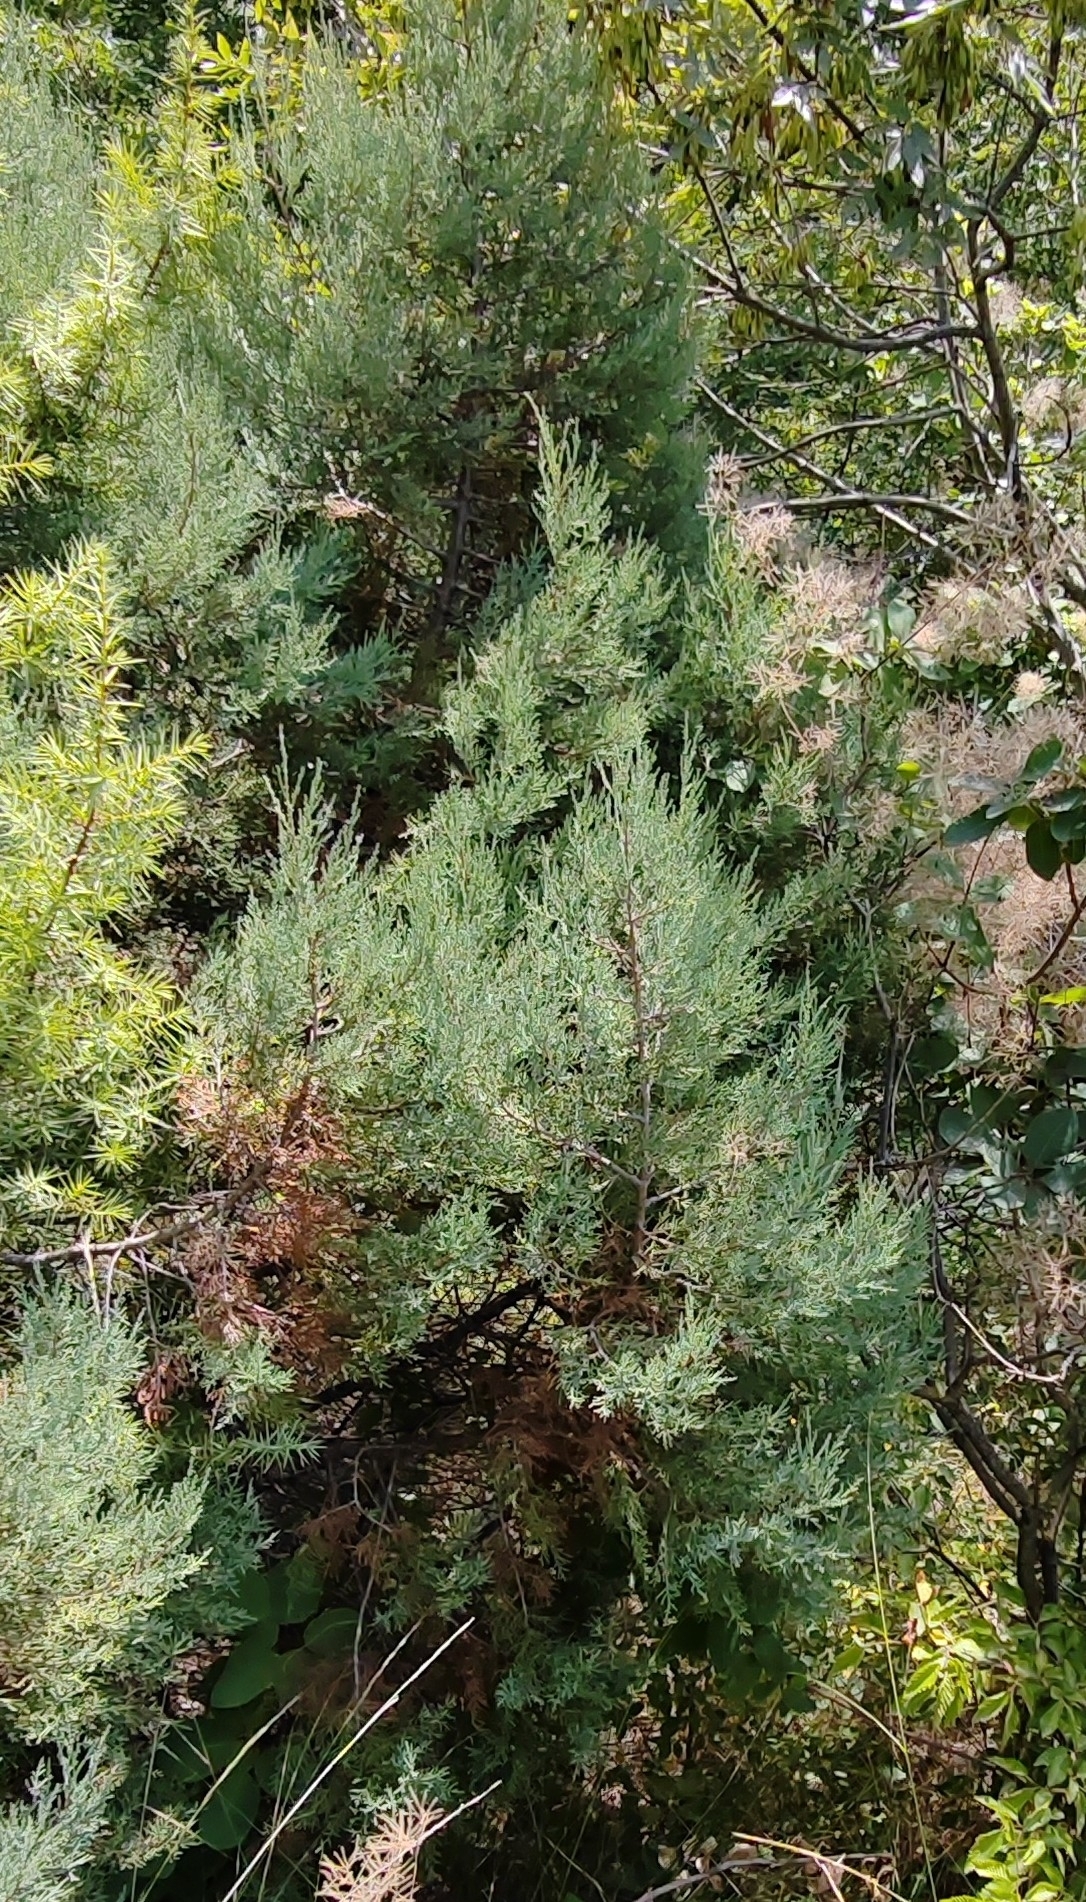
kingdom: Plantae
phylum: Tracheophyta
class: Pinopsida
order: Pinales
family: Cupressaceae
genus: Juniperus
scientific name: Juniperus excelsa
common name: Crimean juniper
